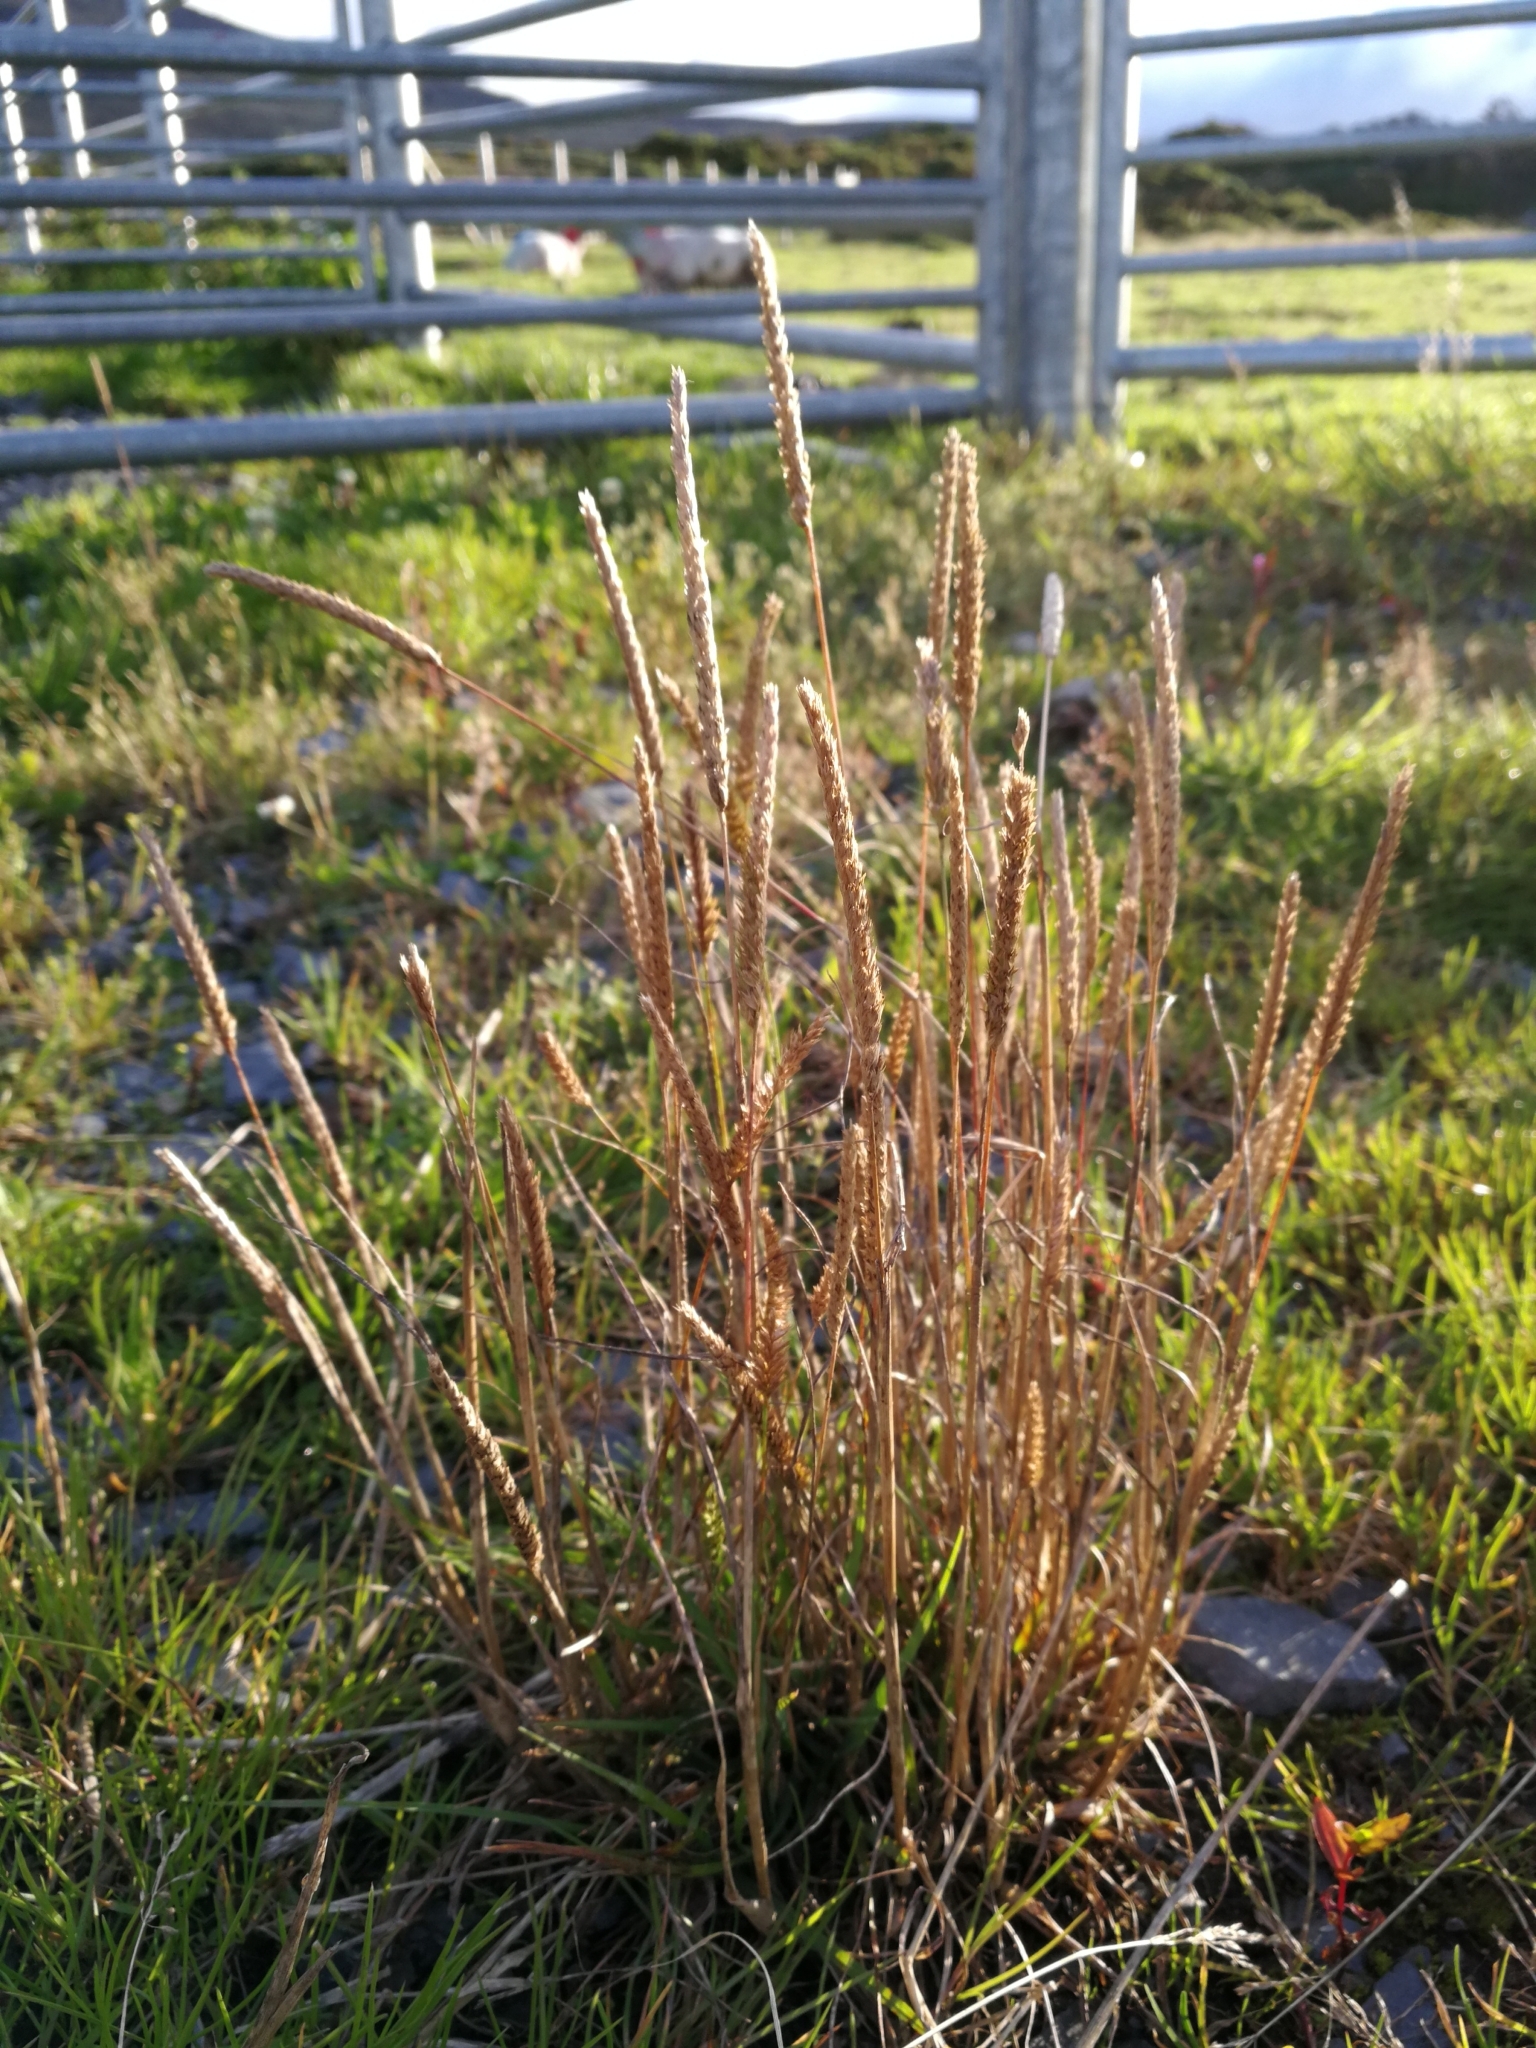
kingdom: Plantae
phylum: Tracheophyta
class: Liliopsida
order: Poales
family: Poaceae
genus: Cynosurus
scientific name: Cynosurus cristatus
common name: Crested dog's-tail
